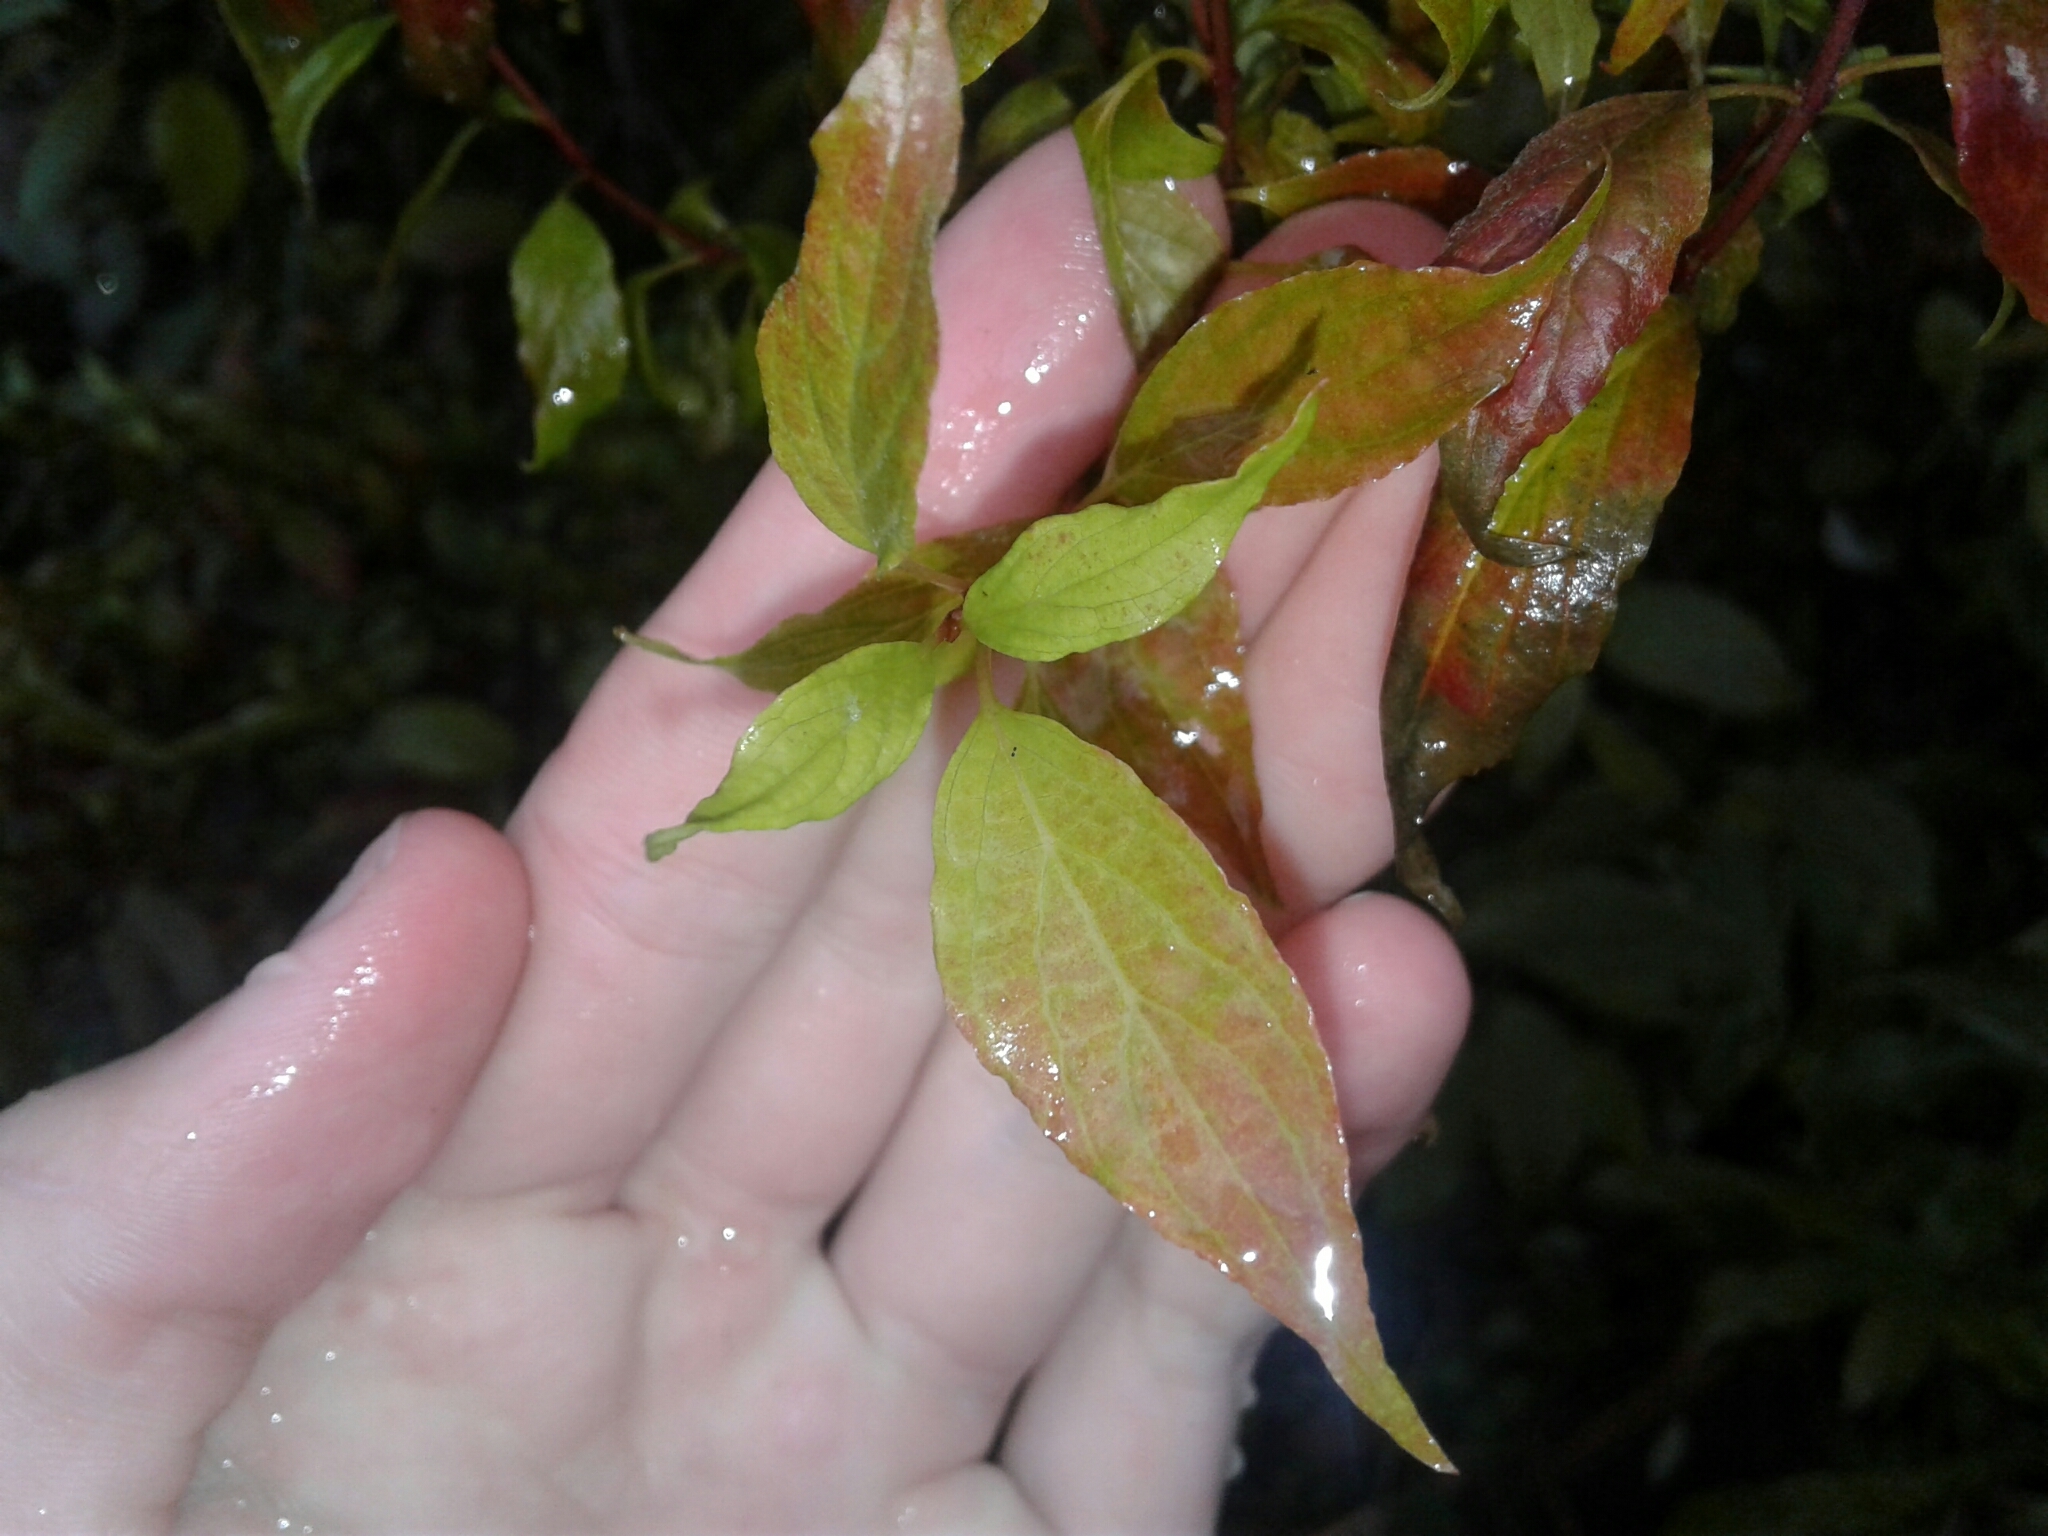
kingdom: Plantae
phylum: Tracheophyta
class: Magnoliopsida
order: Cornales
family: Cornaceae
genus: Cornus
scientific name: Cornus sericea
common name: Red-osier dogwood
